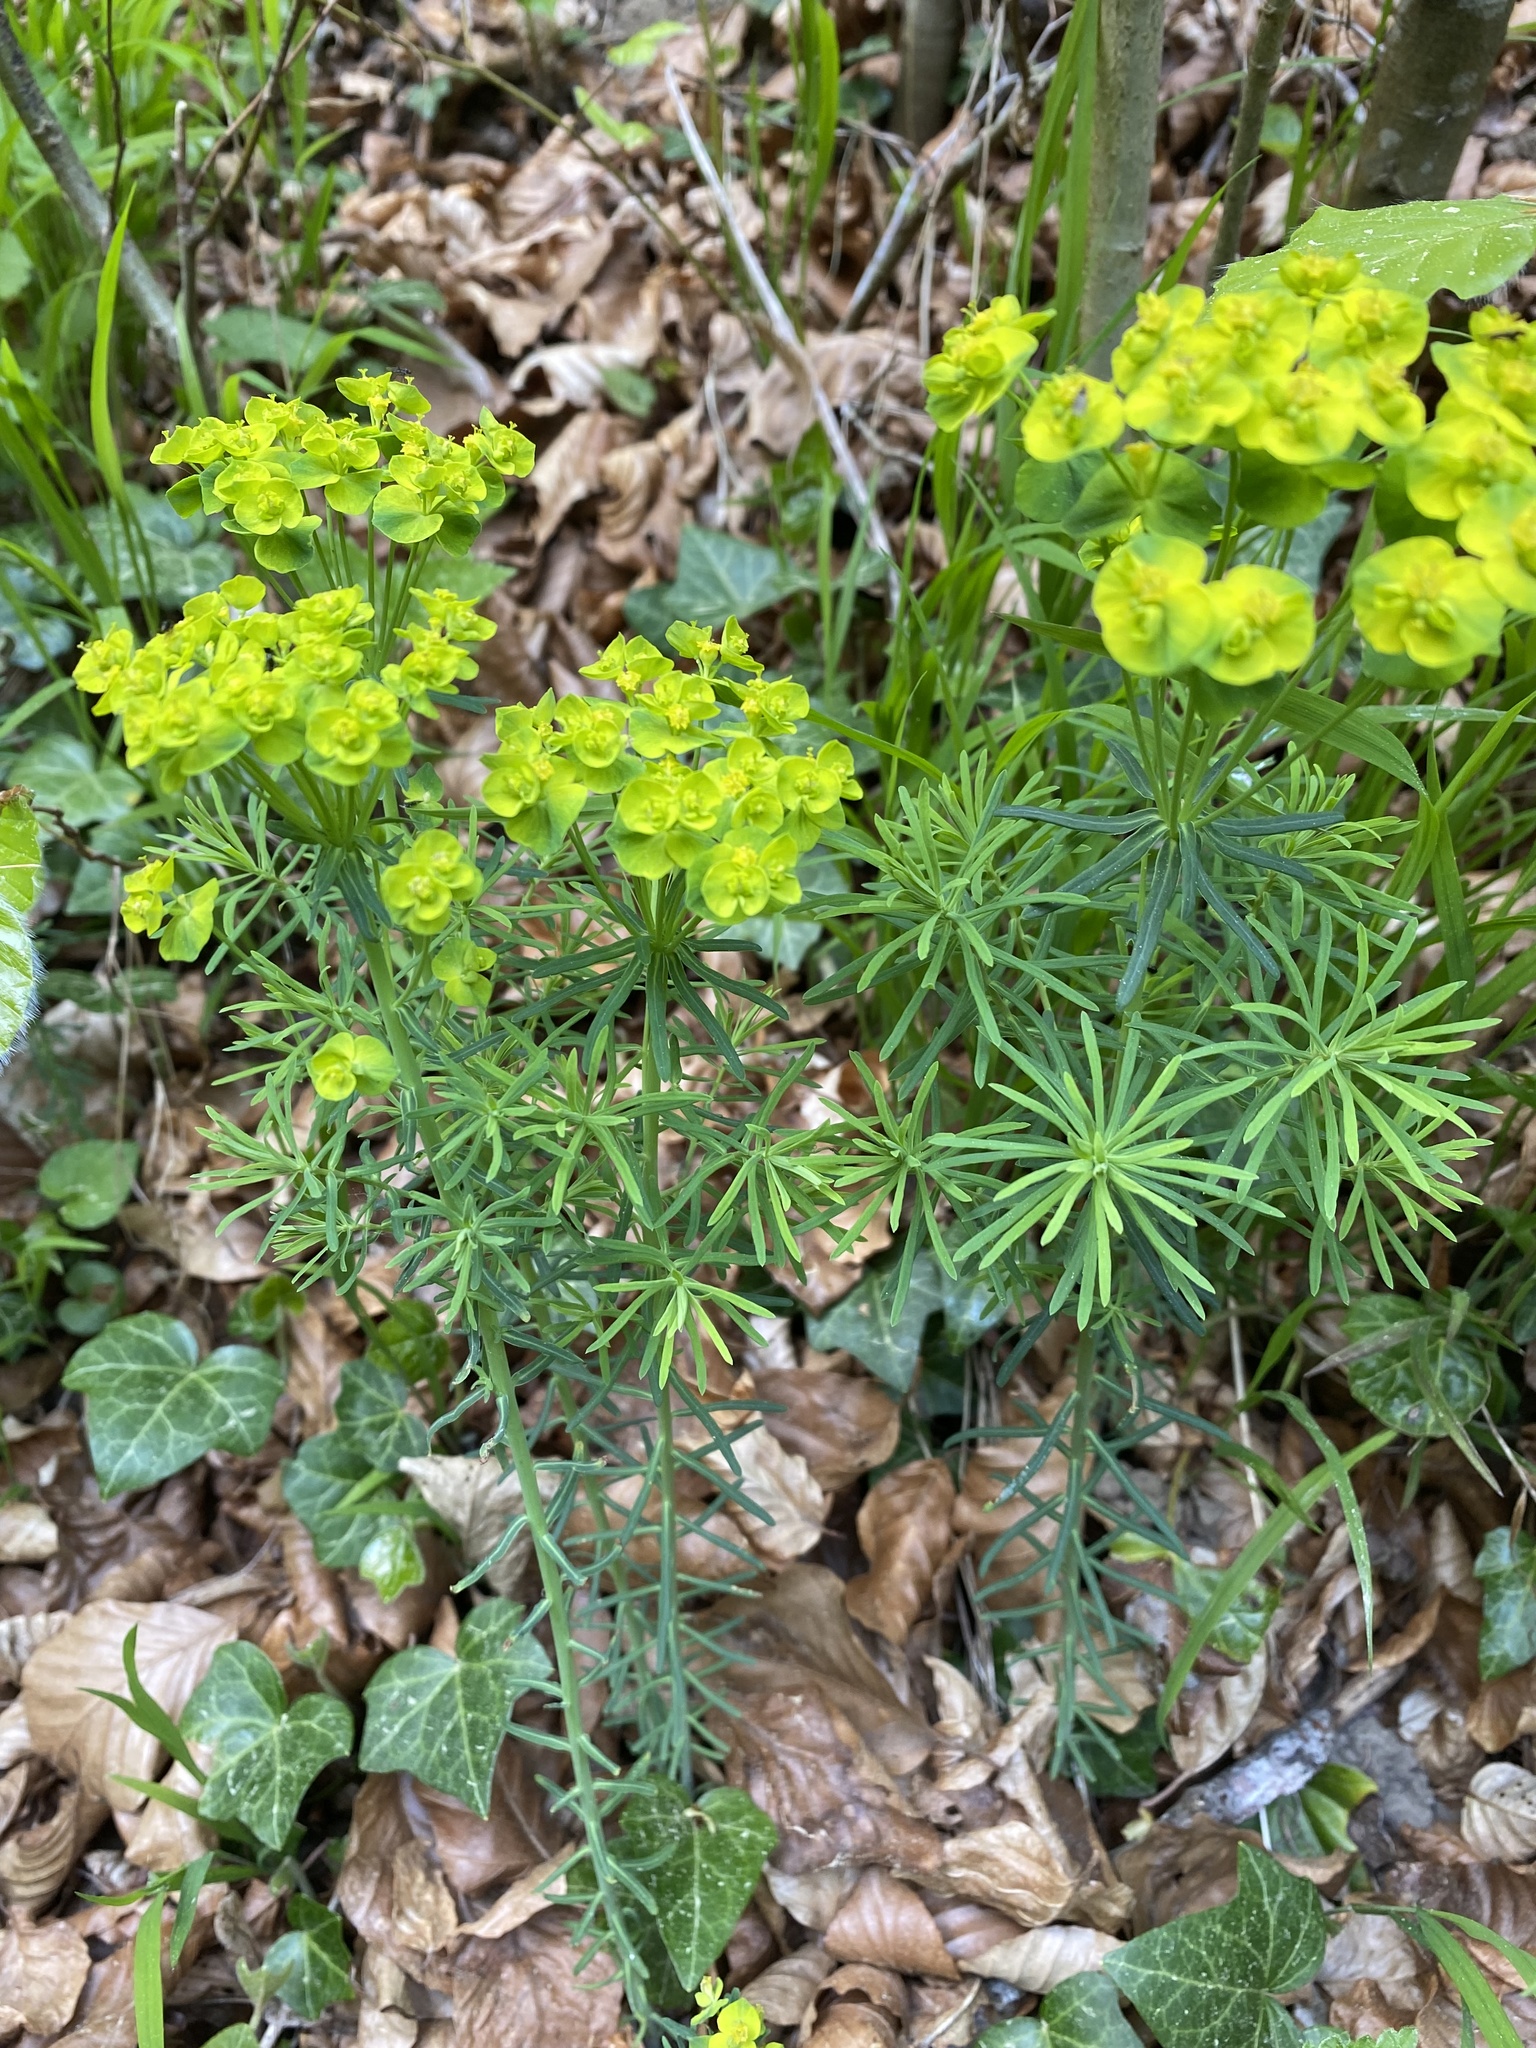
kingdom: Plantae
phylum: Tracheophyta
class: Magnoliopsida
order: Malpighiales
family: Euphorbiaceae
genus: Euphorbia
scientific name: Euphorbia cyparissias
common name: Cypress spurge
